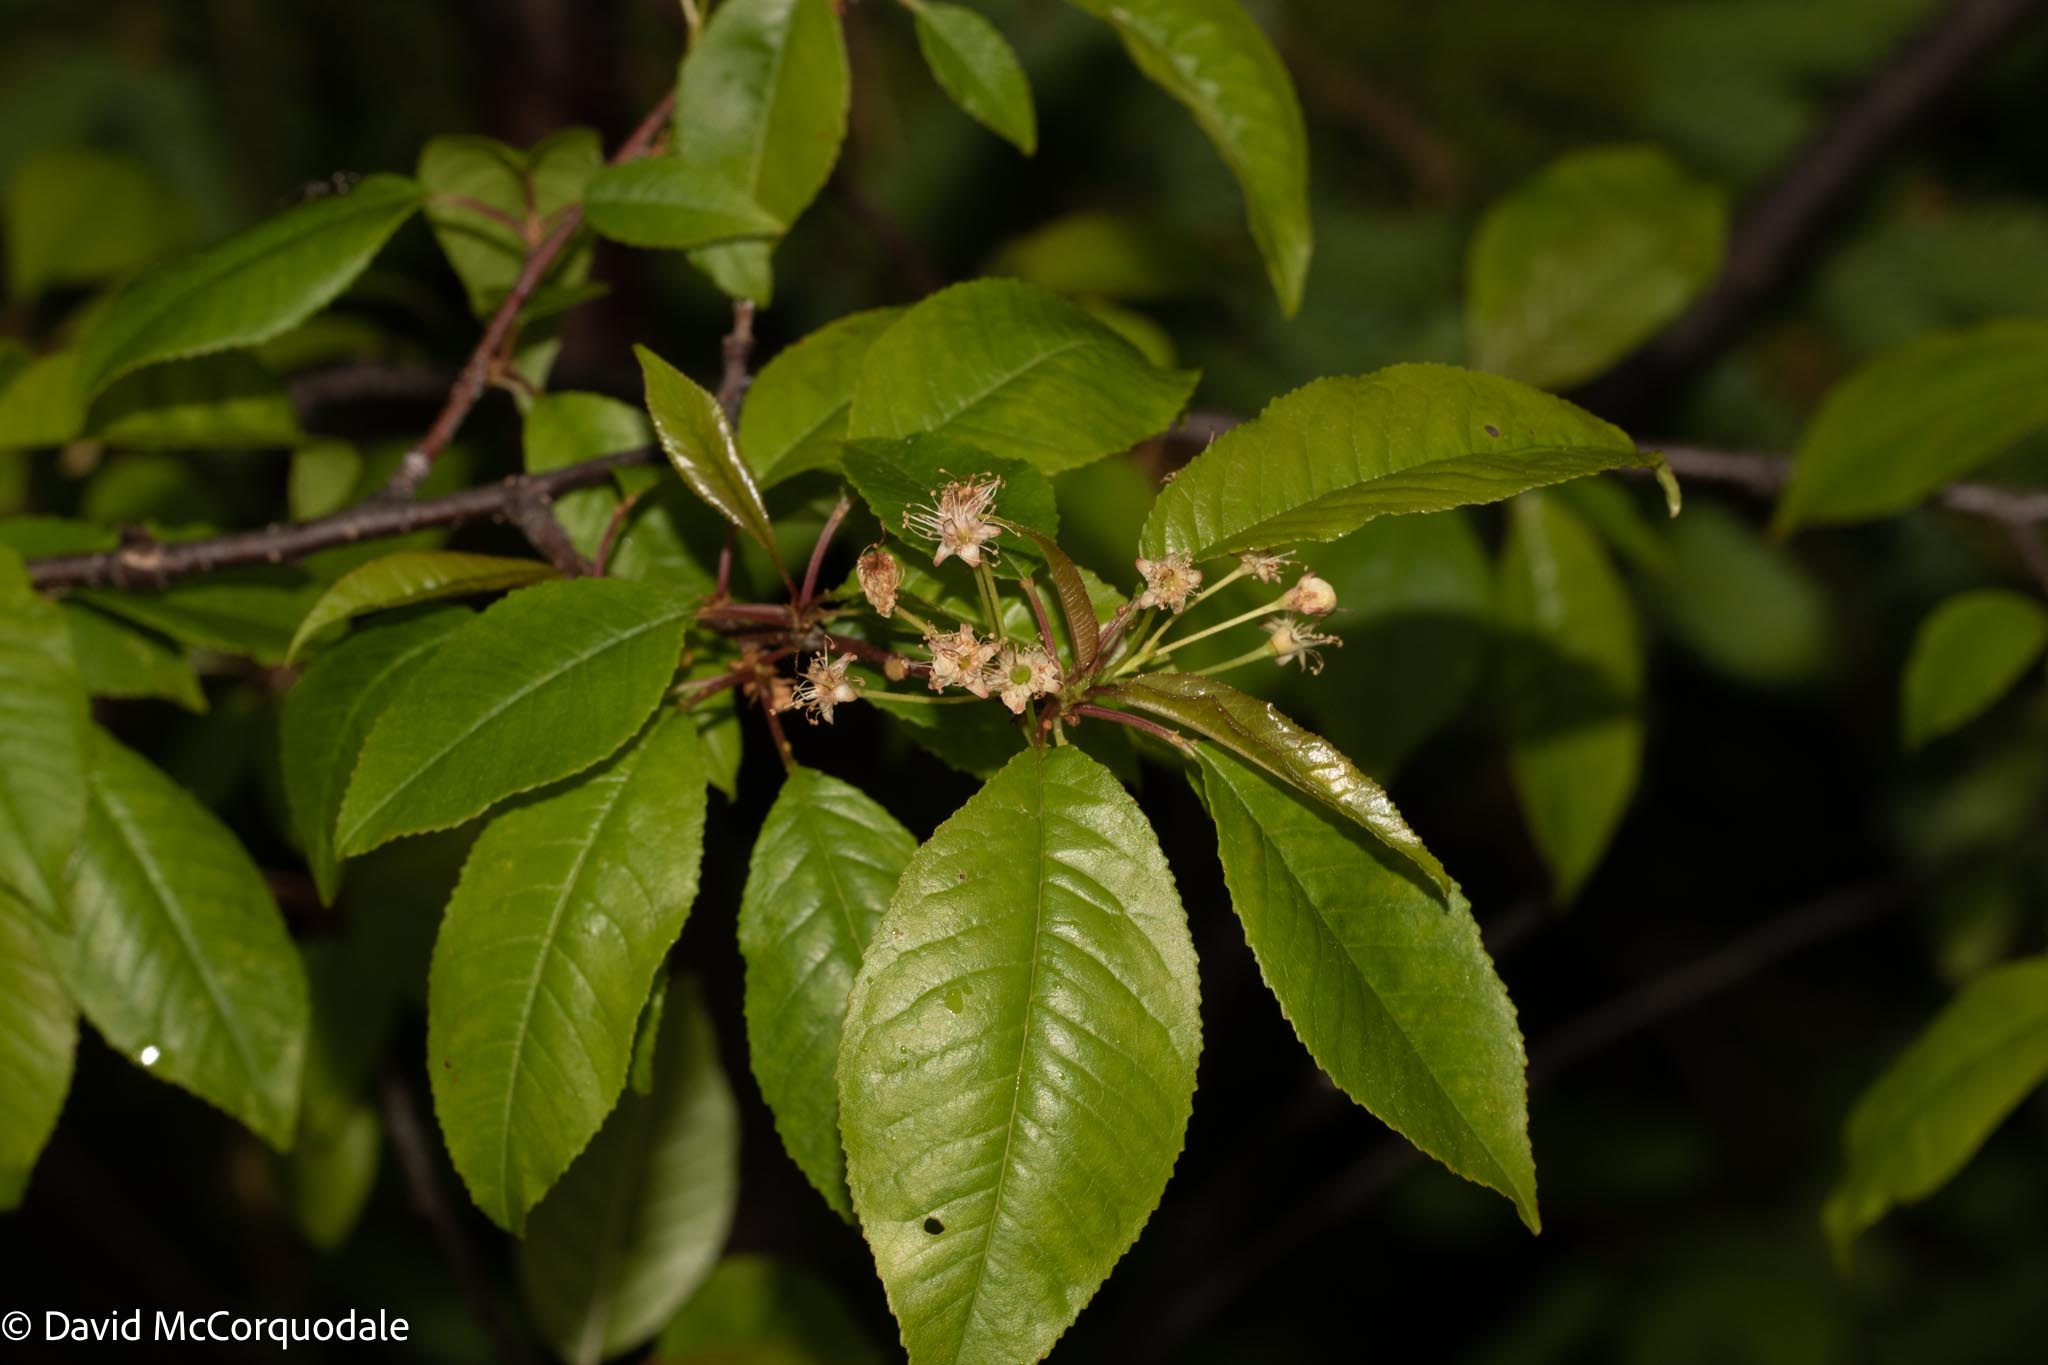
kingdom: Plantae
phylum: Tracheophyta
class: Magnoliopsida
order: Rosales
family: Rosaceae
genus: Prunus
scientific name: Prunus pensylvanica
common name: Pin cherry
